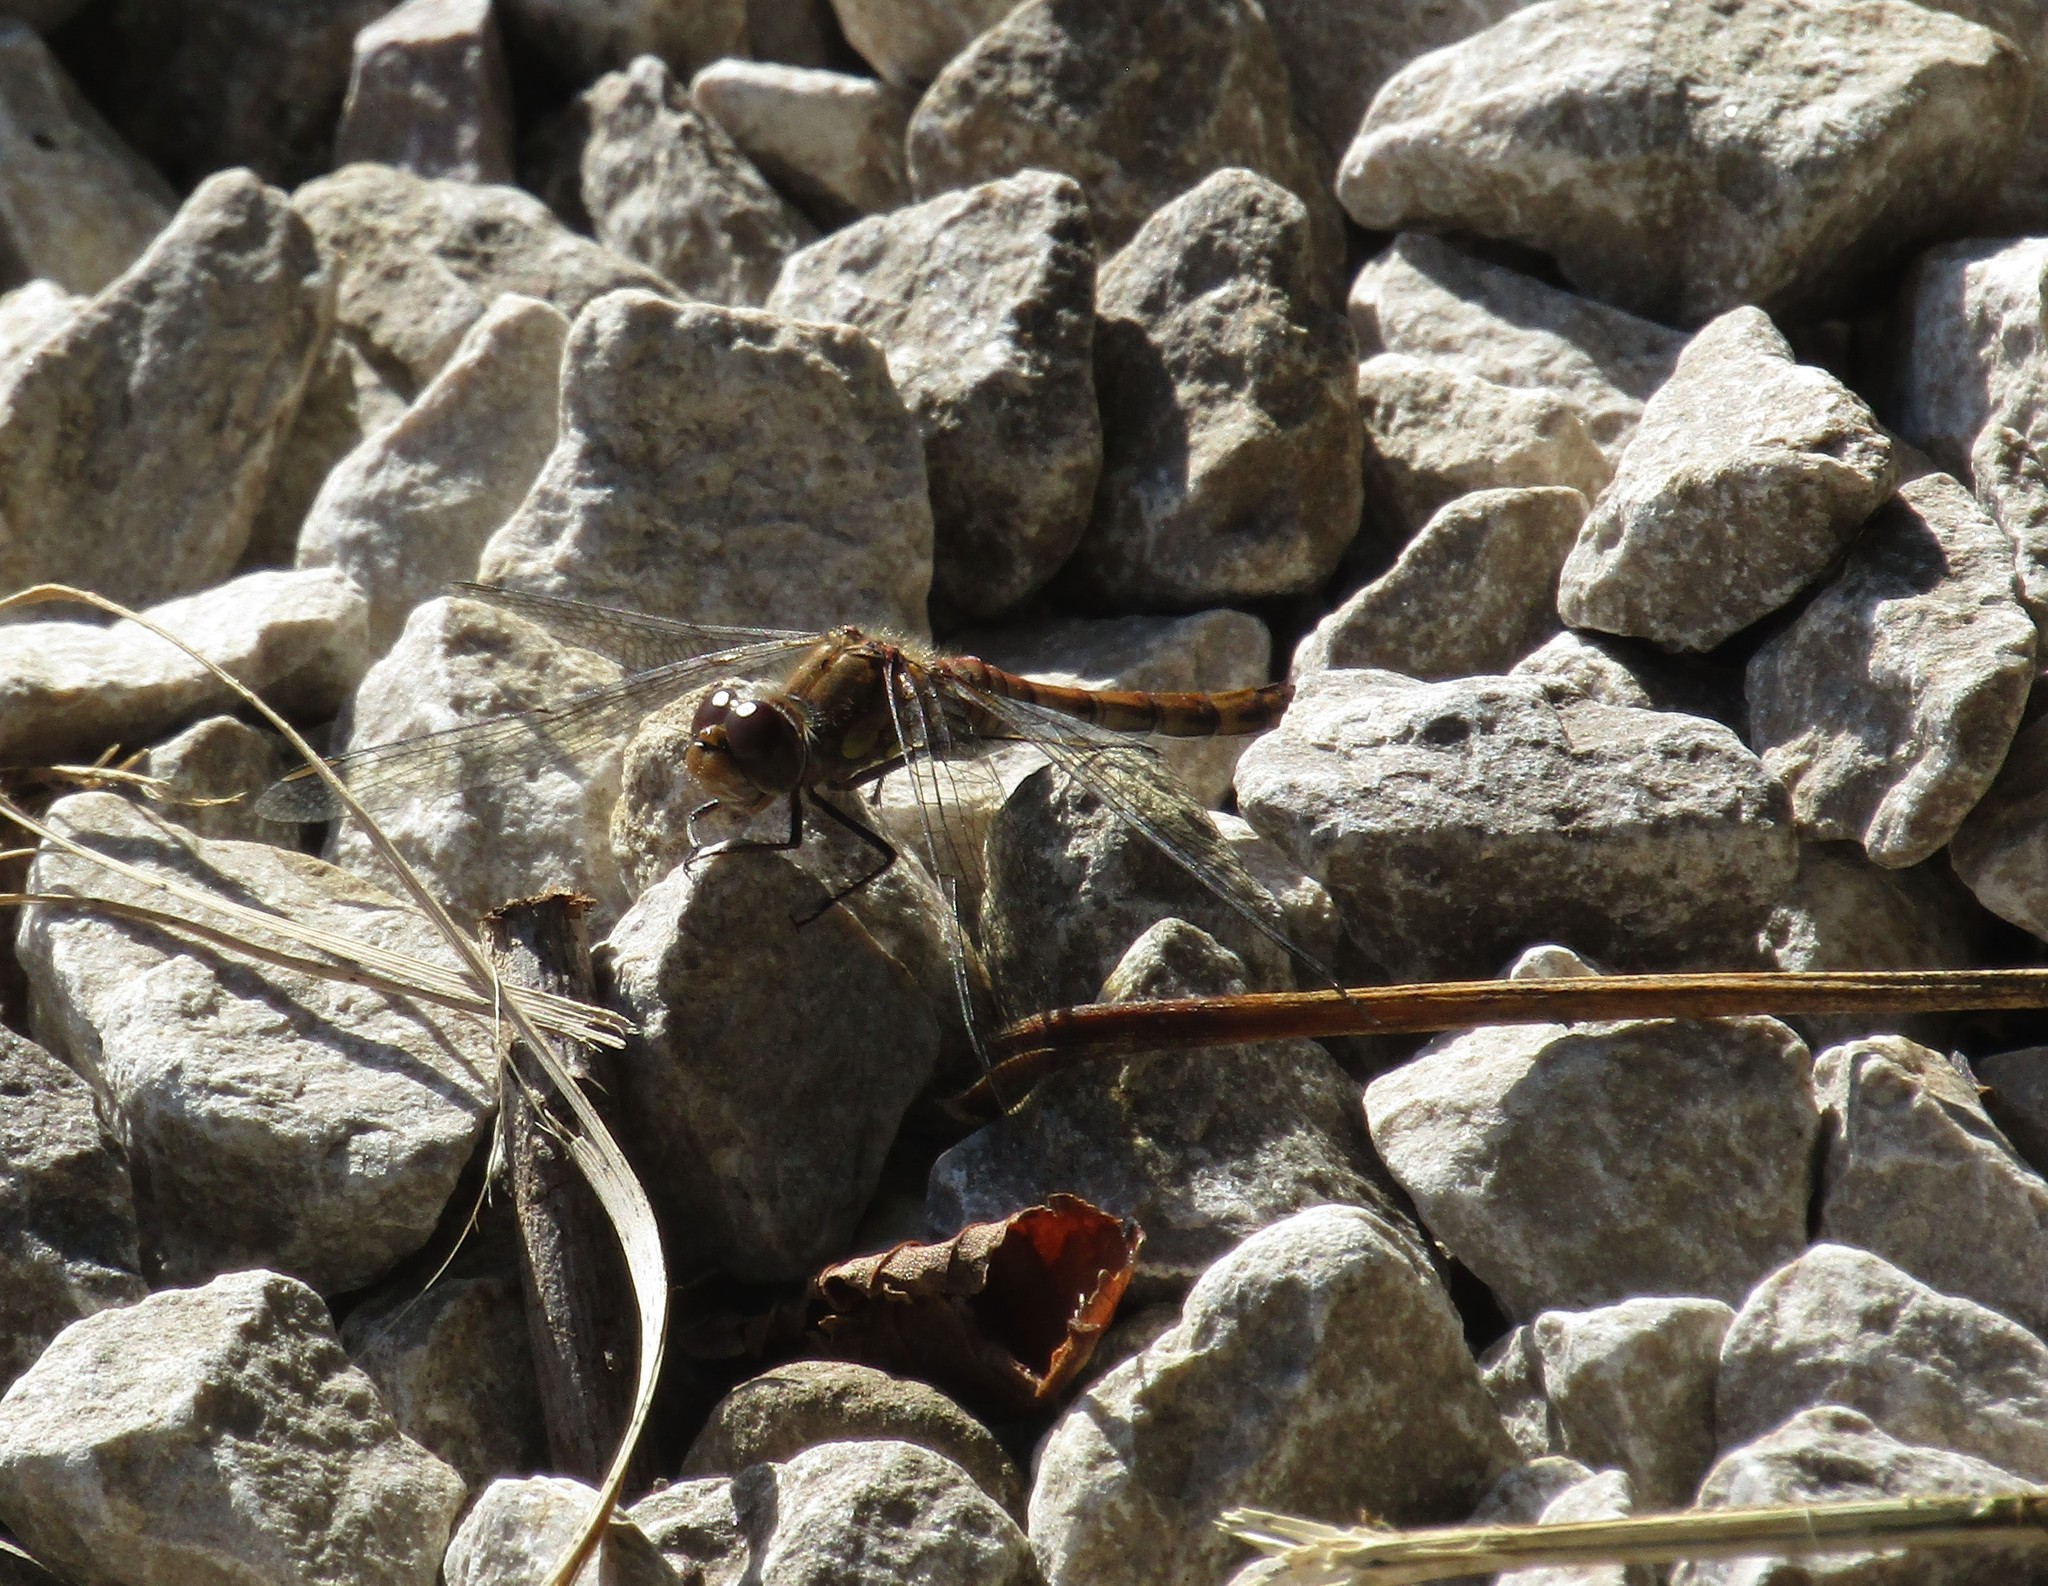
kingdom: Animalia
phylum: Arthropoda
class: Insecta
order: Odonata
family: Libellulidae
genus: Sympetrum
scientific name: Sympetrum striolatum
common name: Common darter
